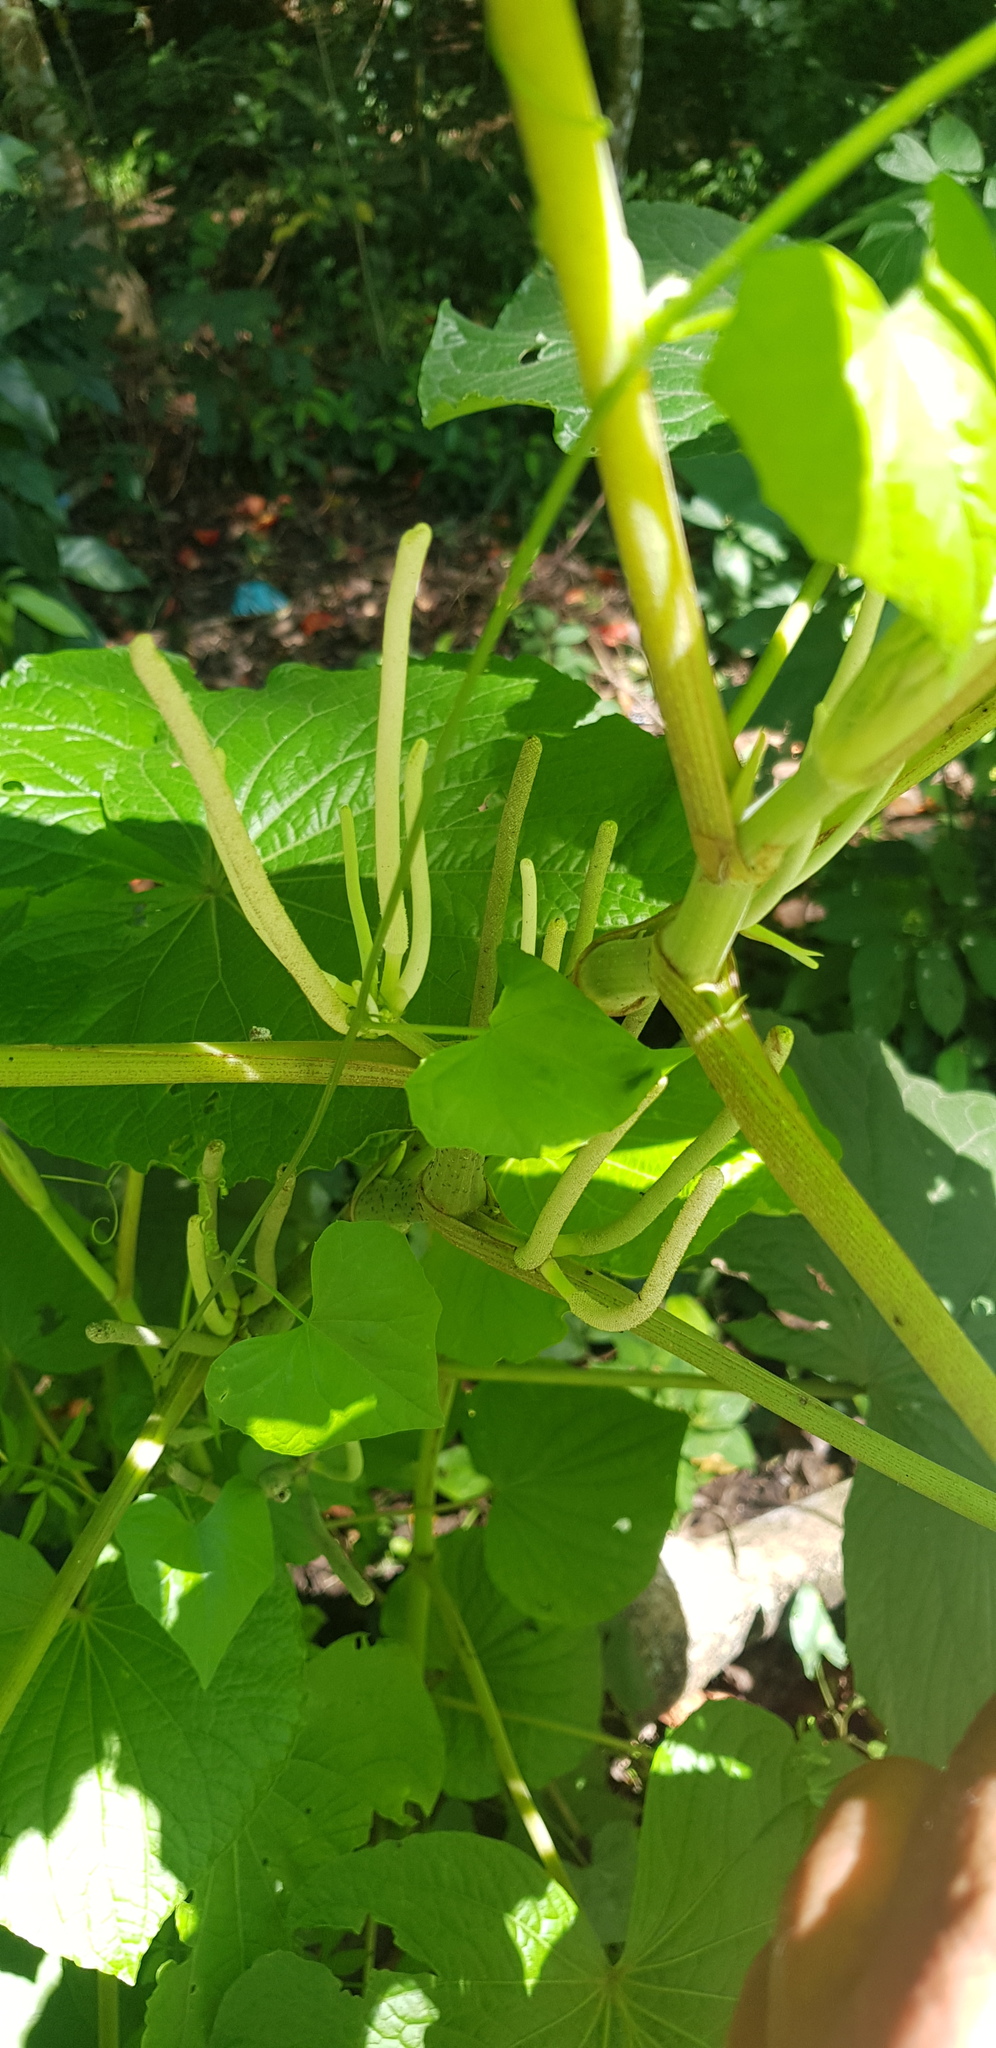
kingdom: Plantae
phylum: Tracheophyta
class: Magnoliopsida
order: Piperales
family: Piperaceae
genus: Piper
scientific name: Piper umbellatum
